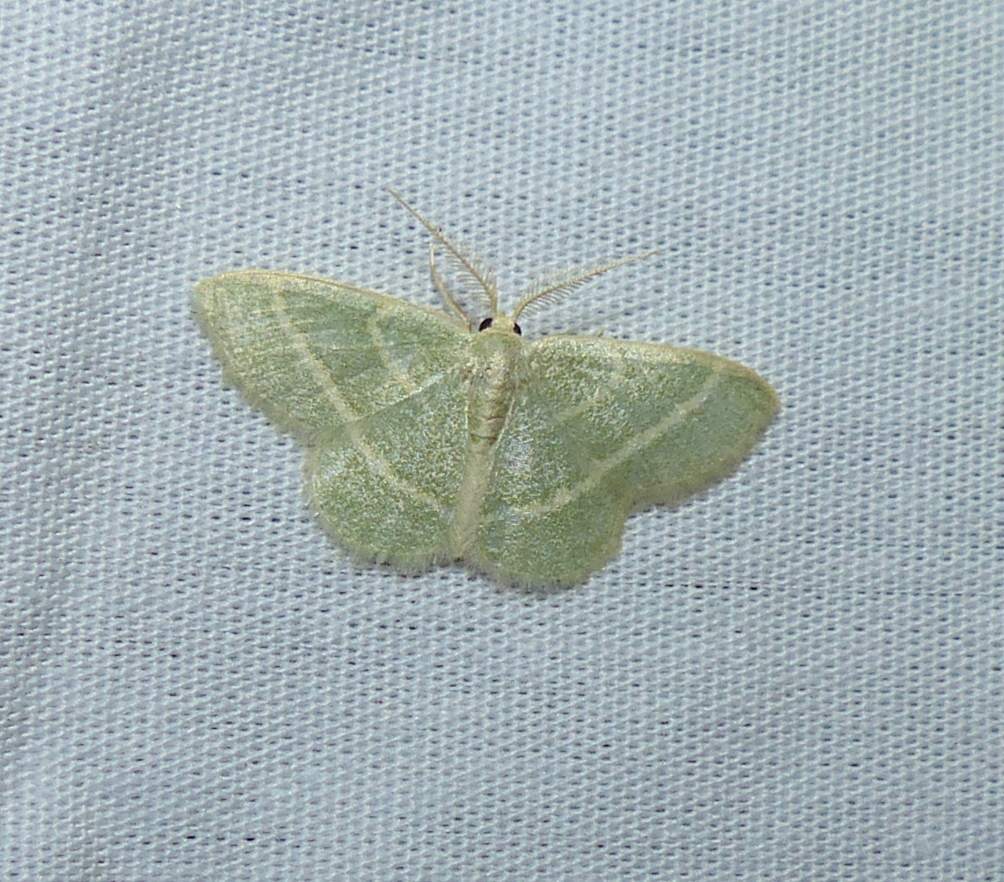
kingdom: Animalia
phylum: Arthropoda
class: Insecta
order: Lepidoptera
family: Geometridae
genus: Chlorochlamys
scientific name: Chlorochlamys chloroleucaria
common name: Blackberry looper
